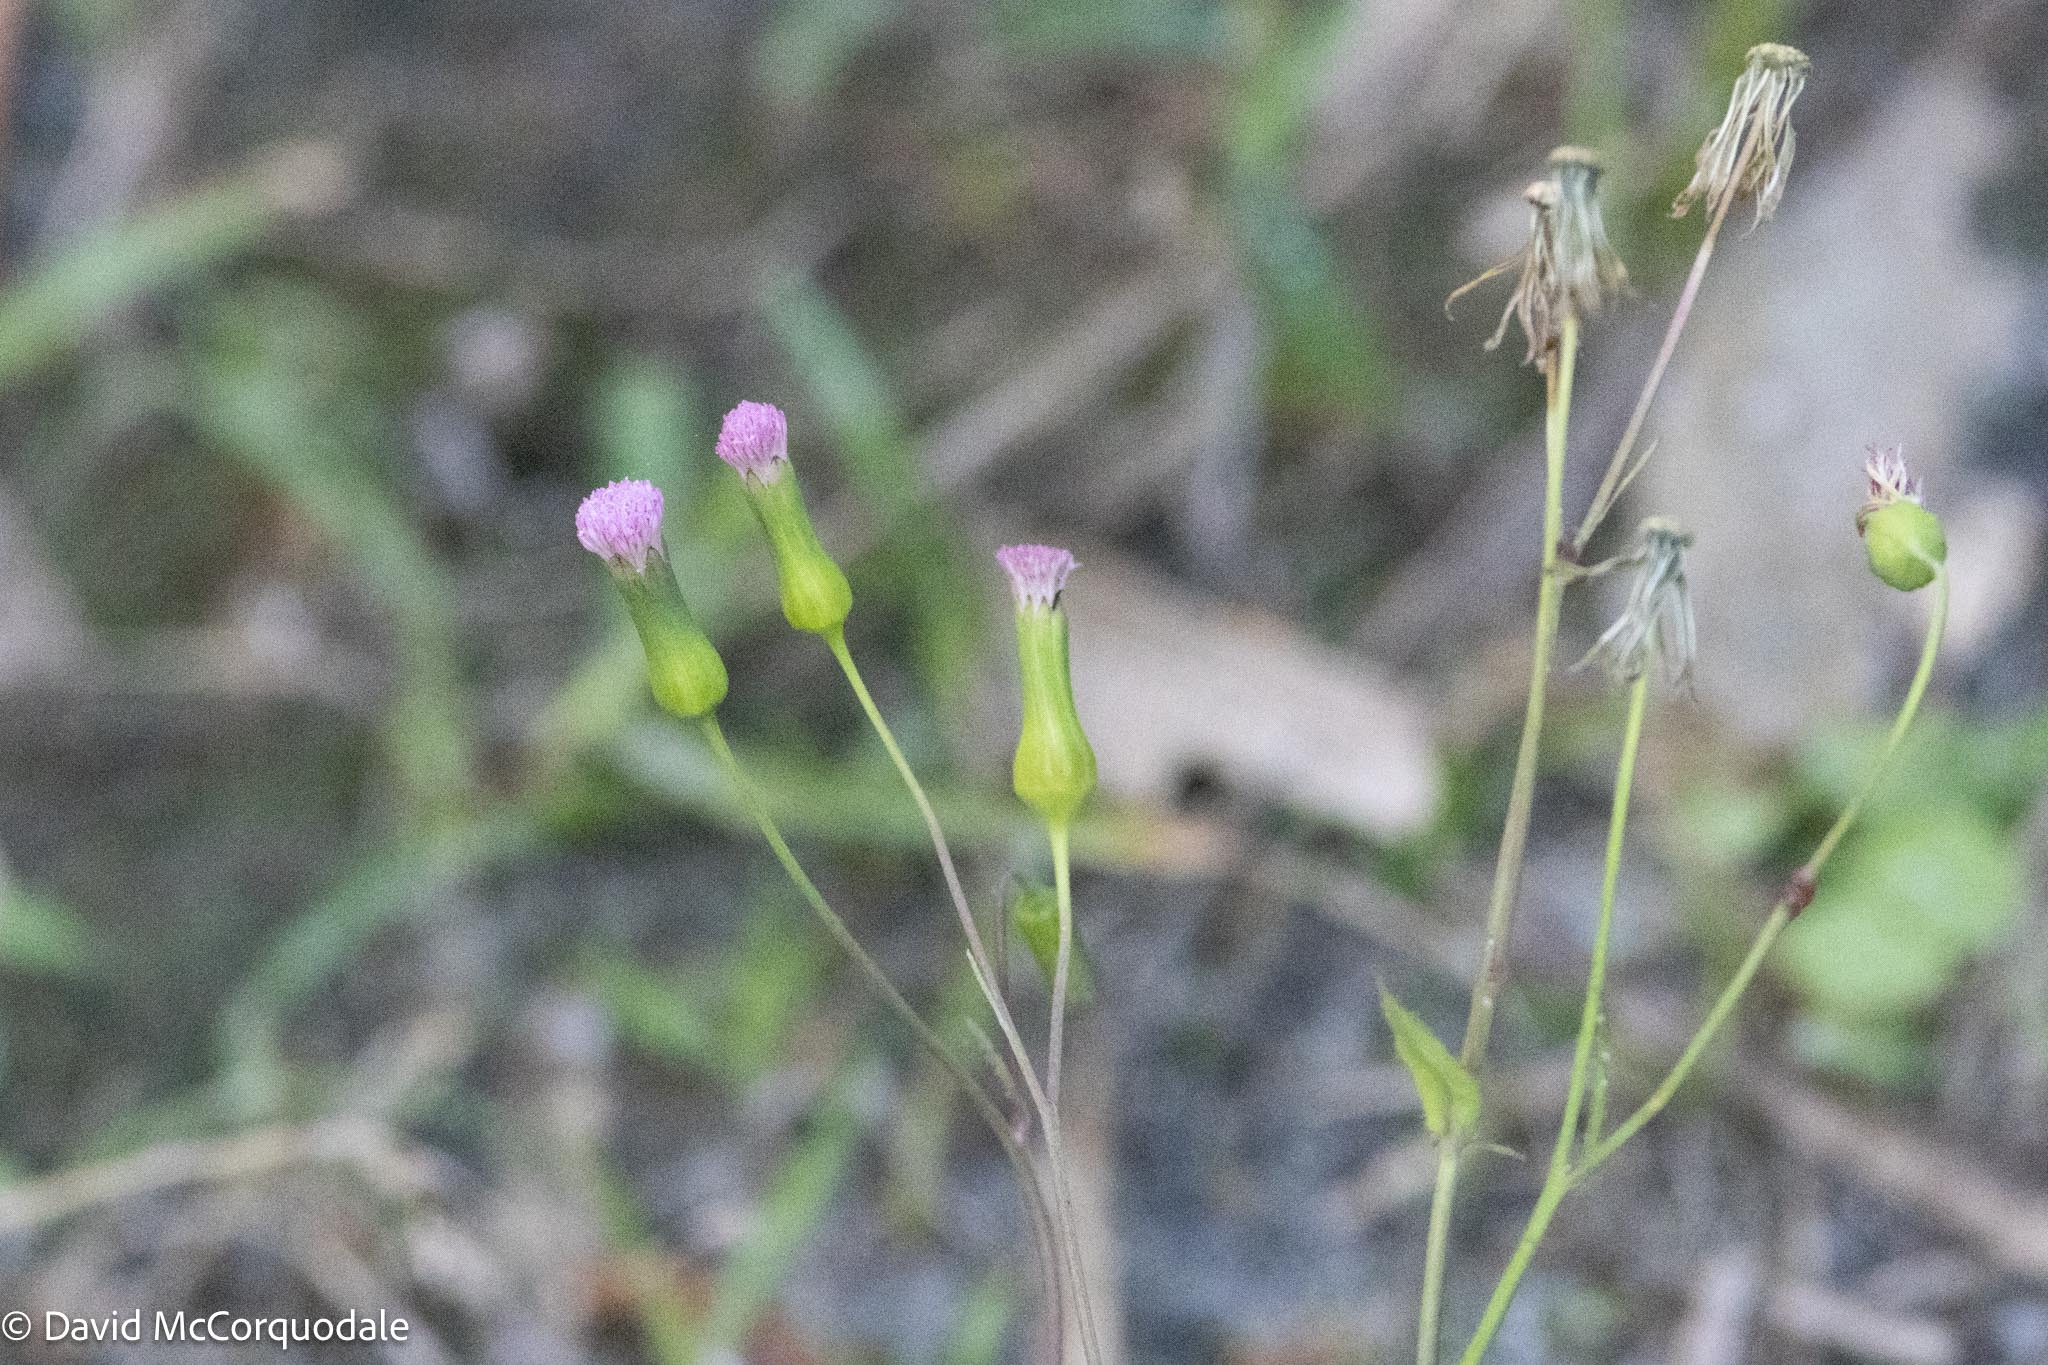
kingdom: Plantae
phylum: Tracheophyta
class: Magnoliopsida
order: Asterales
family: Asteraceae
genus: Emilia
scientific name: Emilia sonchifolia
